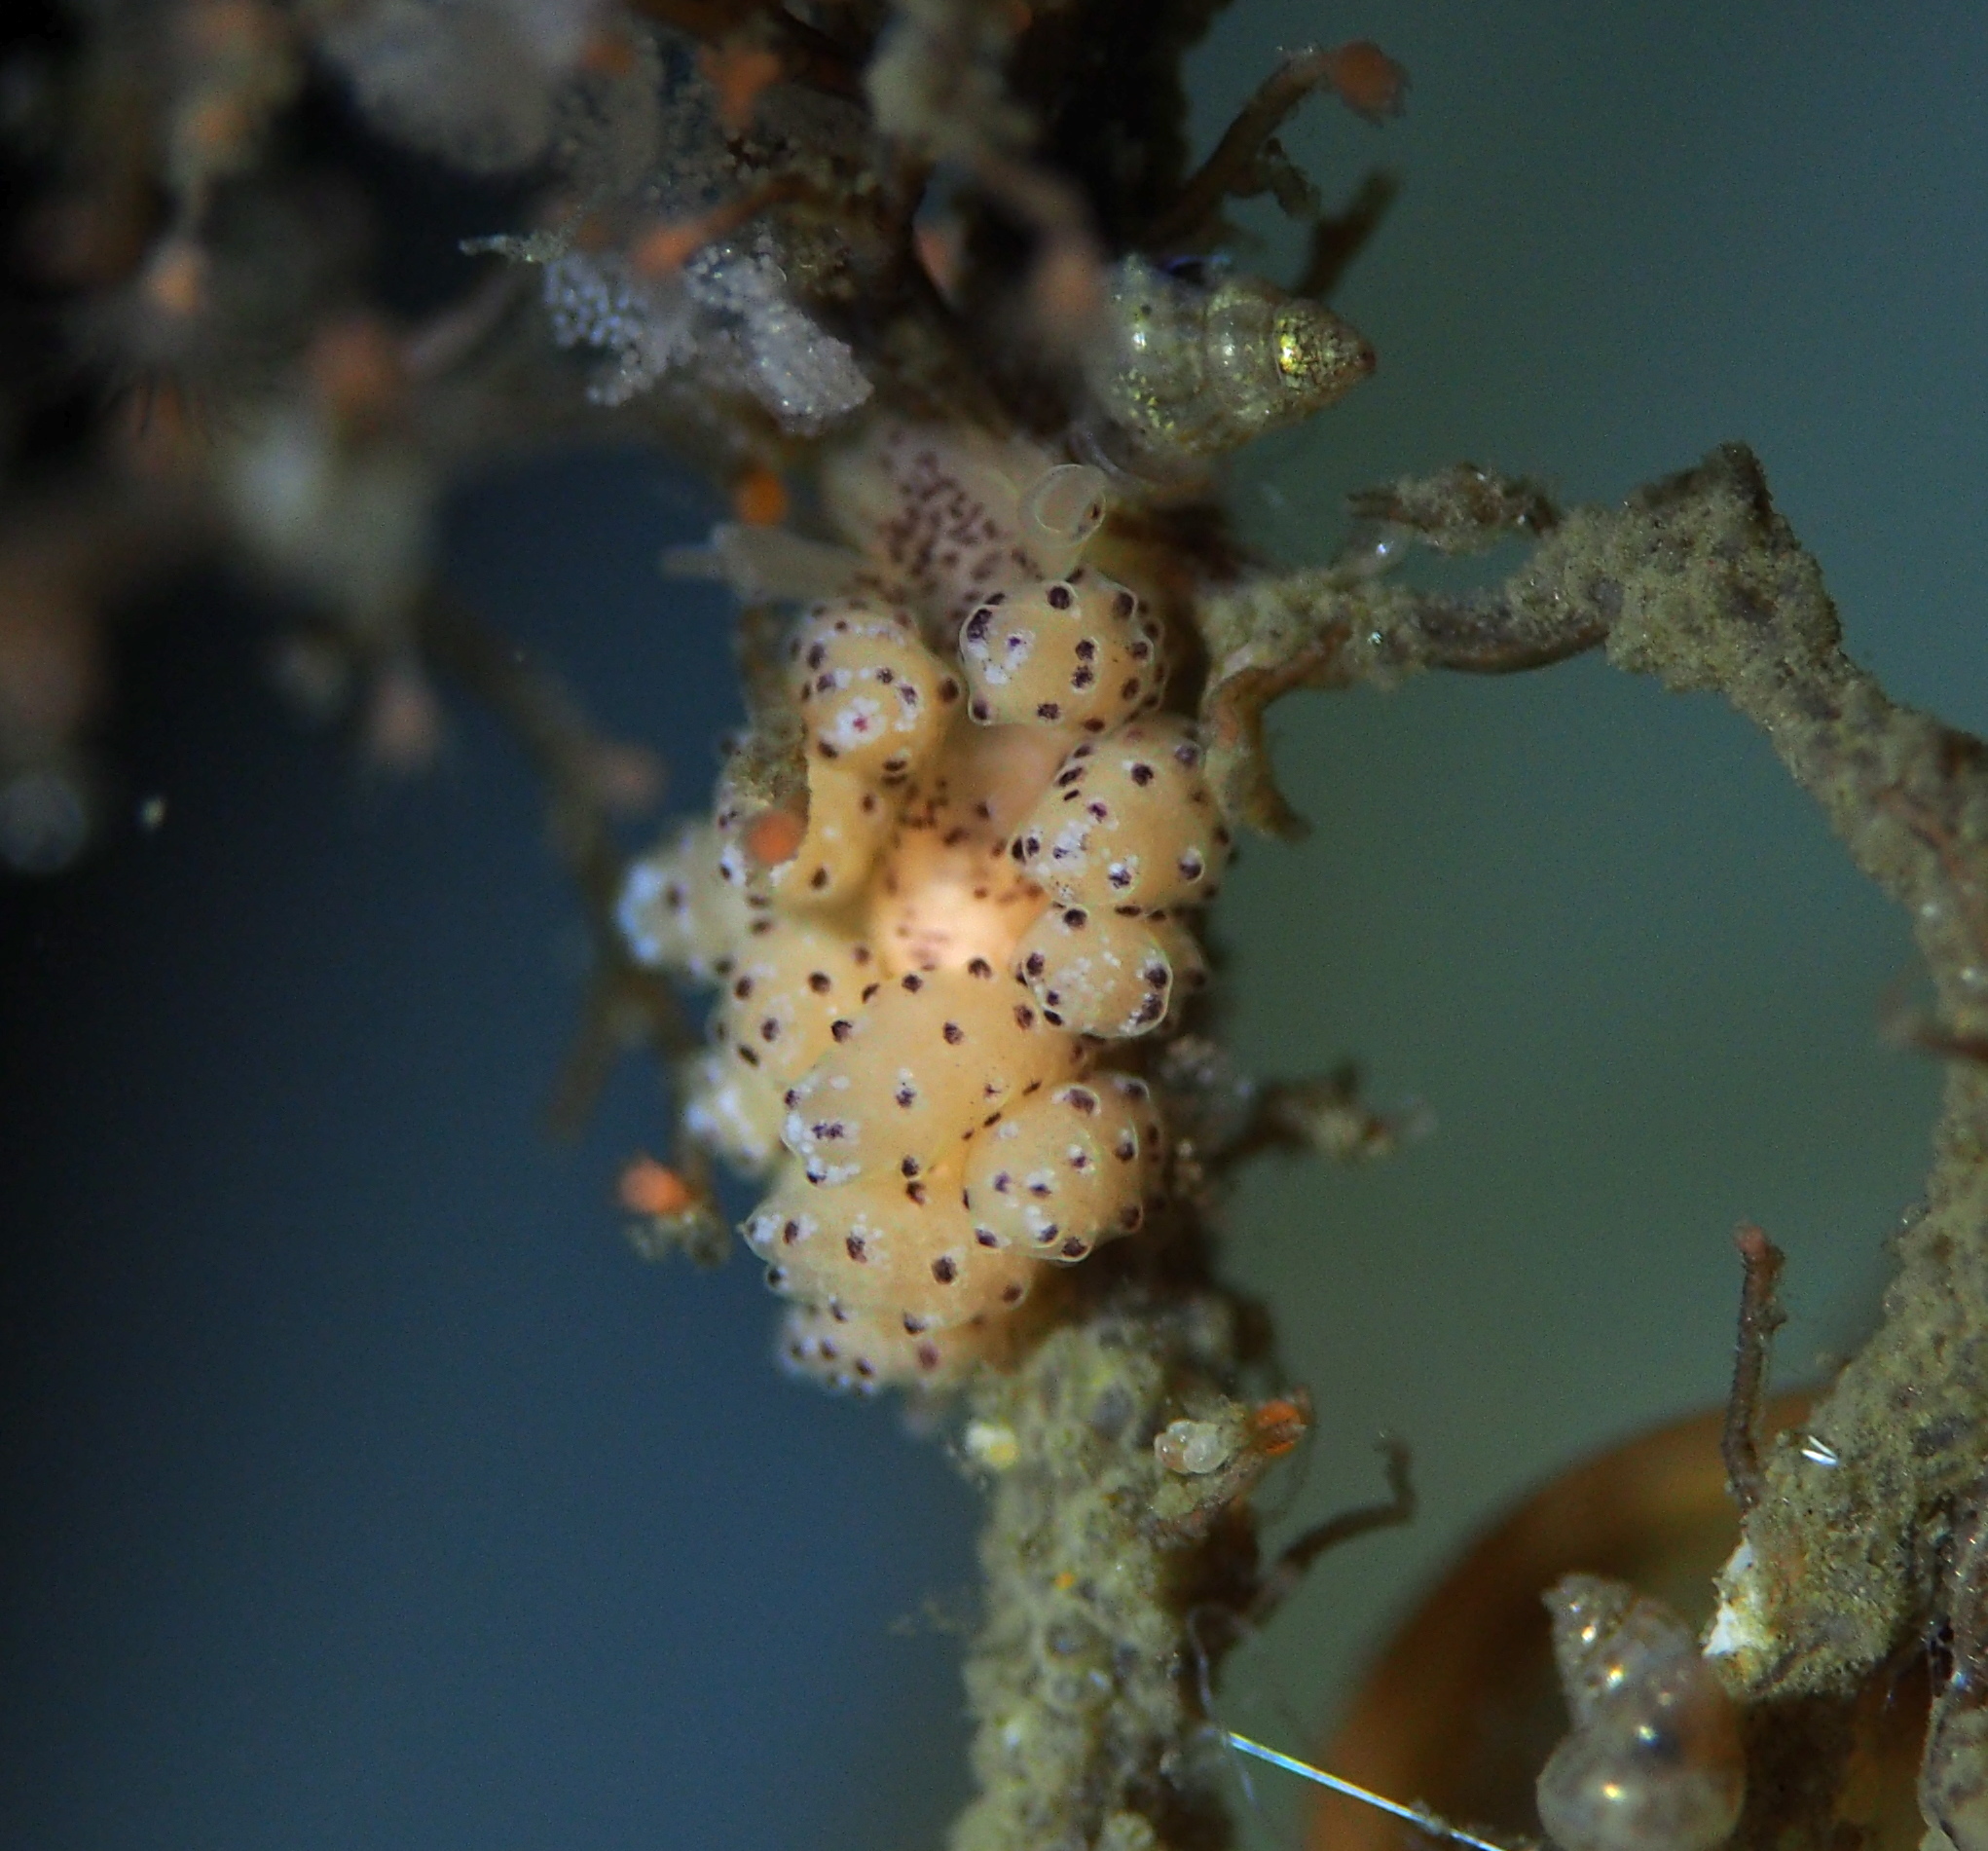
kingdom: Animalia
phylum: Mollusca
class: Gastropoda
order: Nudibranchia
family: Dotidae
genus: Doto
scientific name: Doto dunnei
